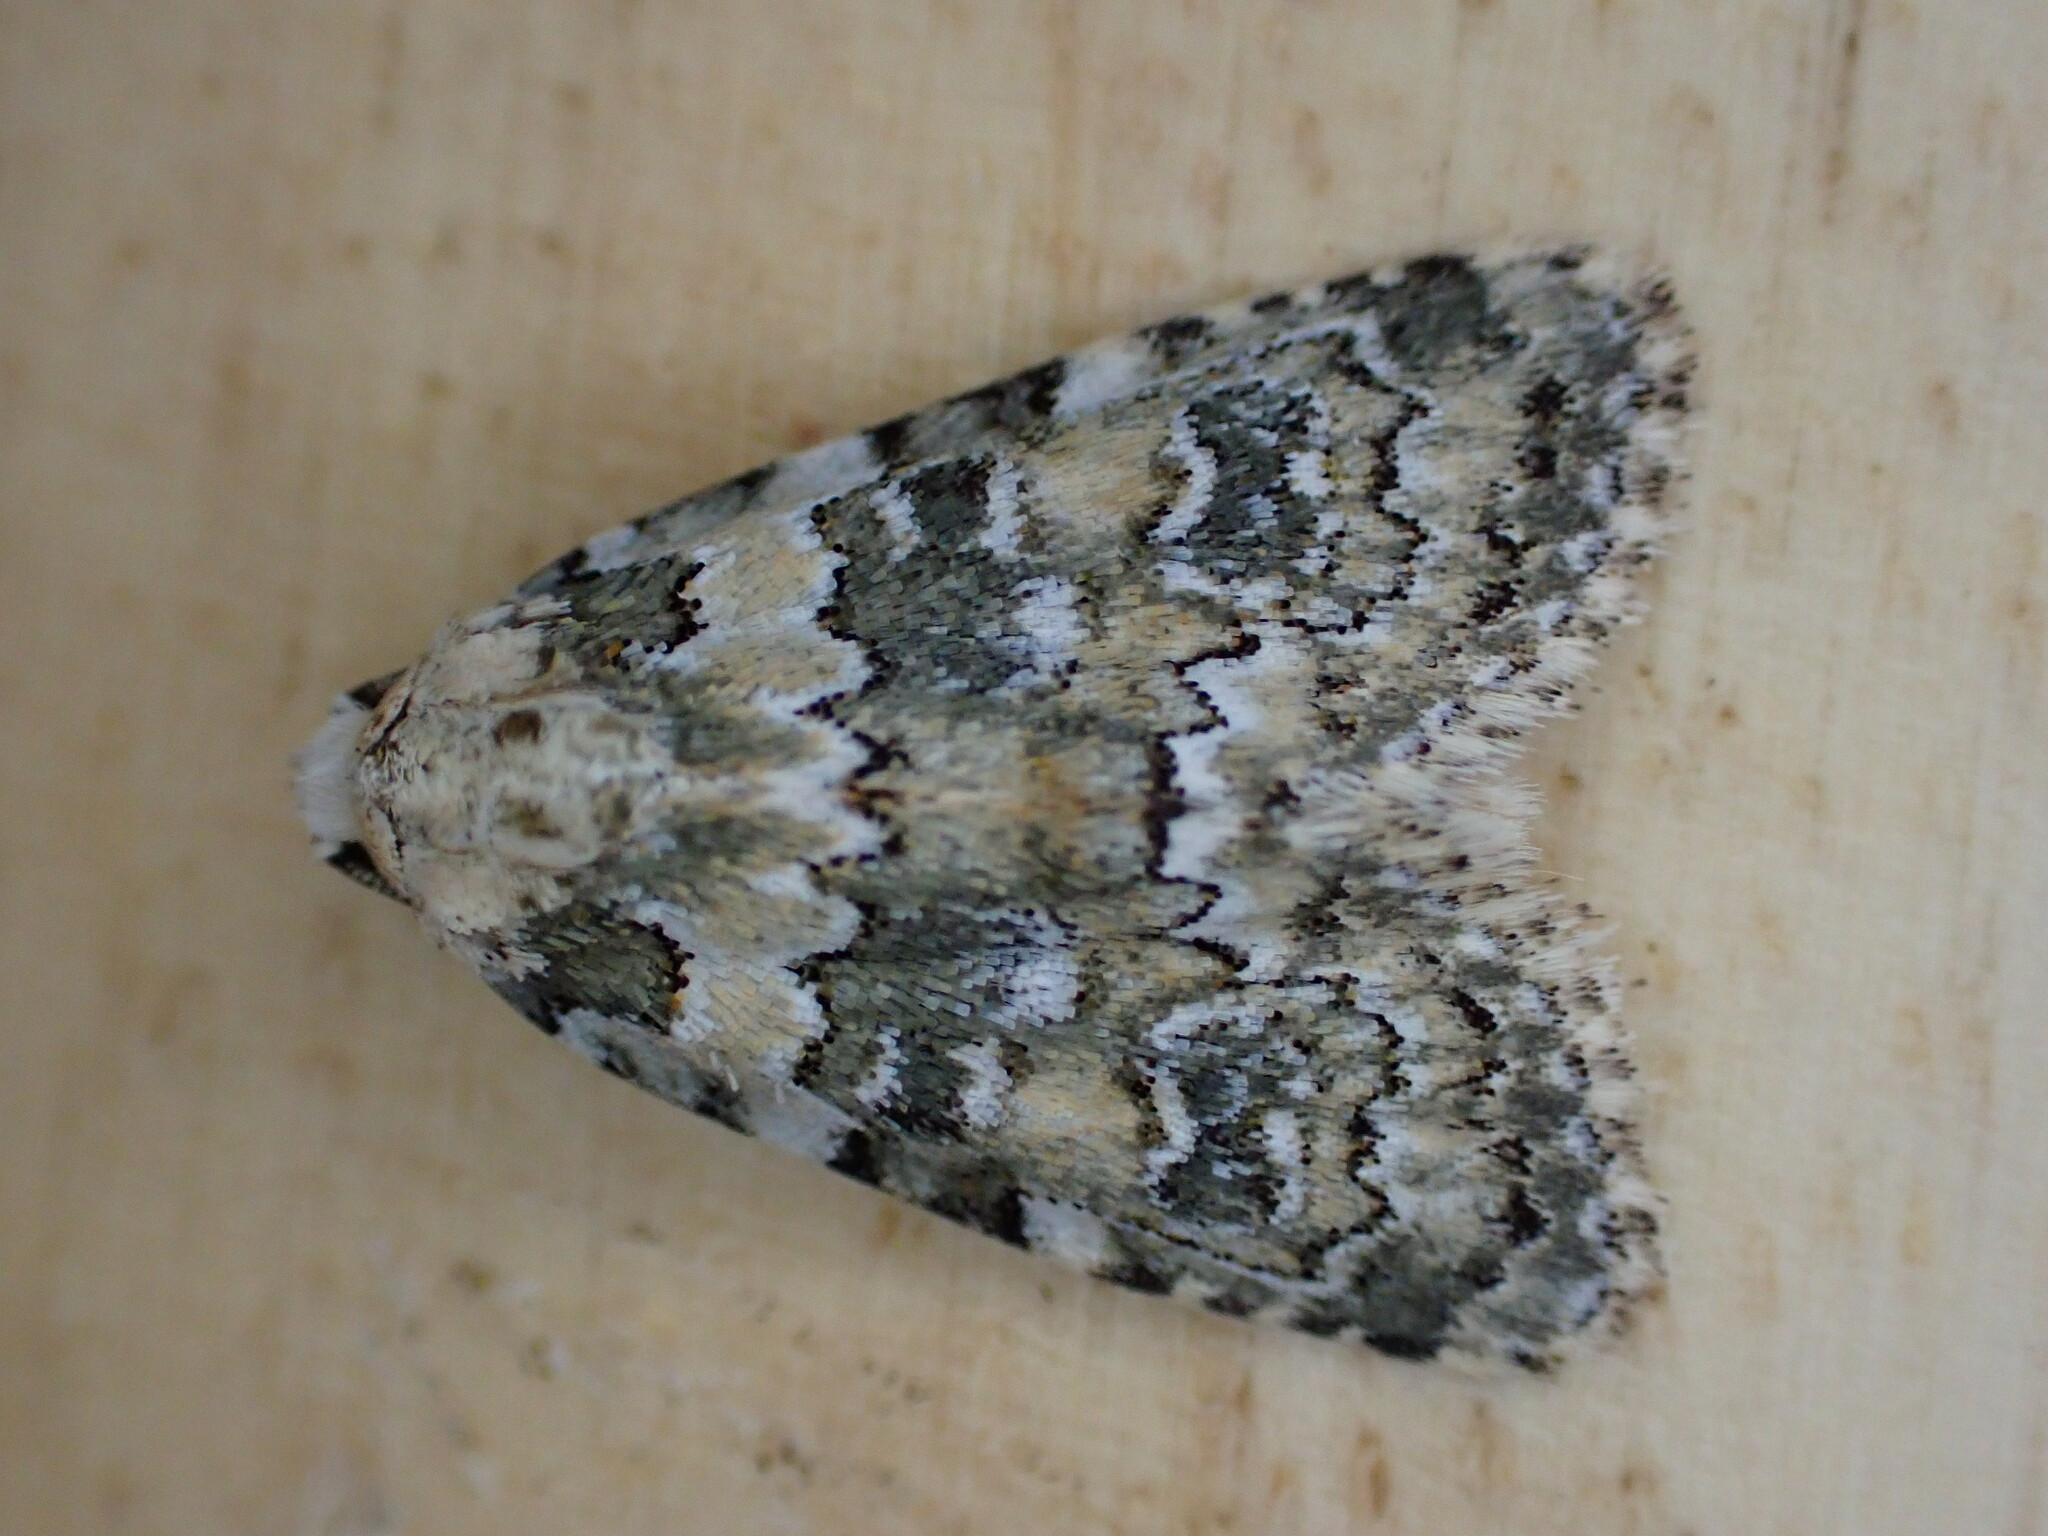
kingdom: Animalia
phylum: Arthropoda
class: Insecta
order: Lepidoptera
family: Noctuidae
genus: Bryophila
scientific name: Bryophila domestica
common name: Marbled beauty
